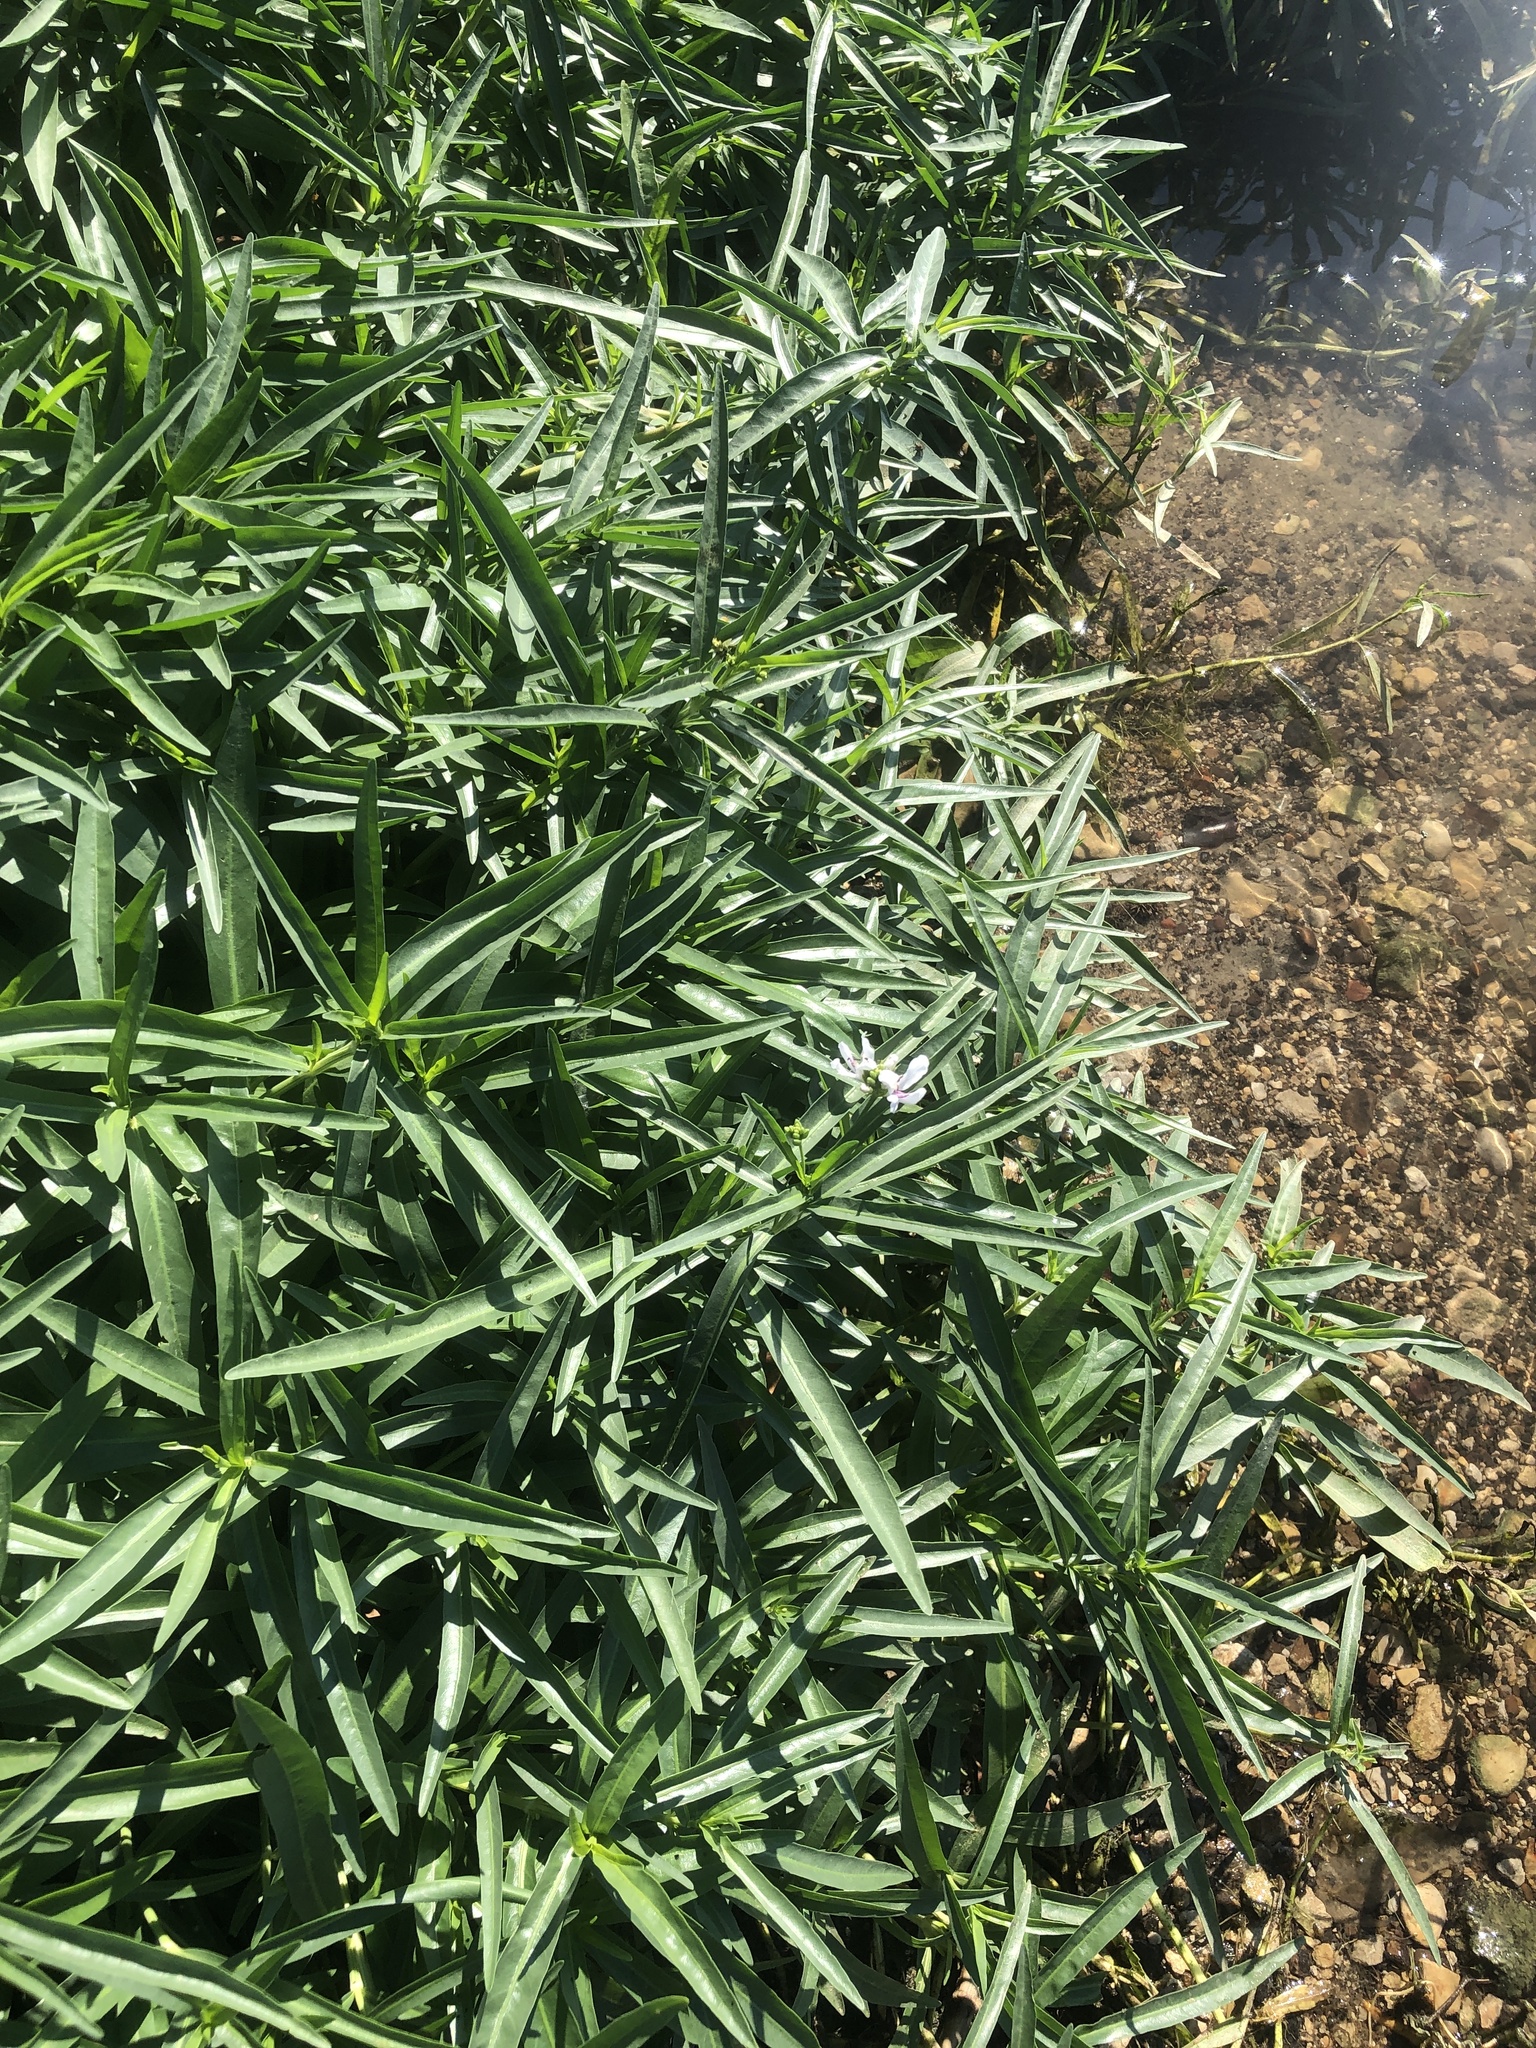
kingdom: Plantae
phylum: Tracheophyta
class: Magnoliopsida
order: Lamiales
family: Acanthaceae
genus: Dianthera
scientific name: Dianthera americana
